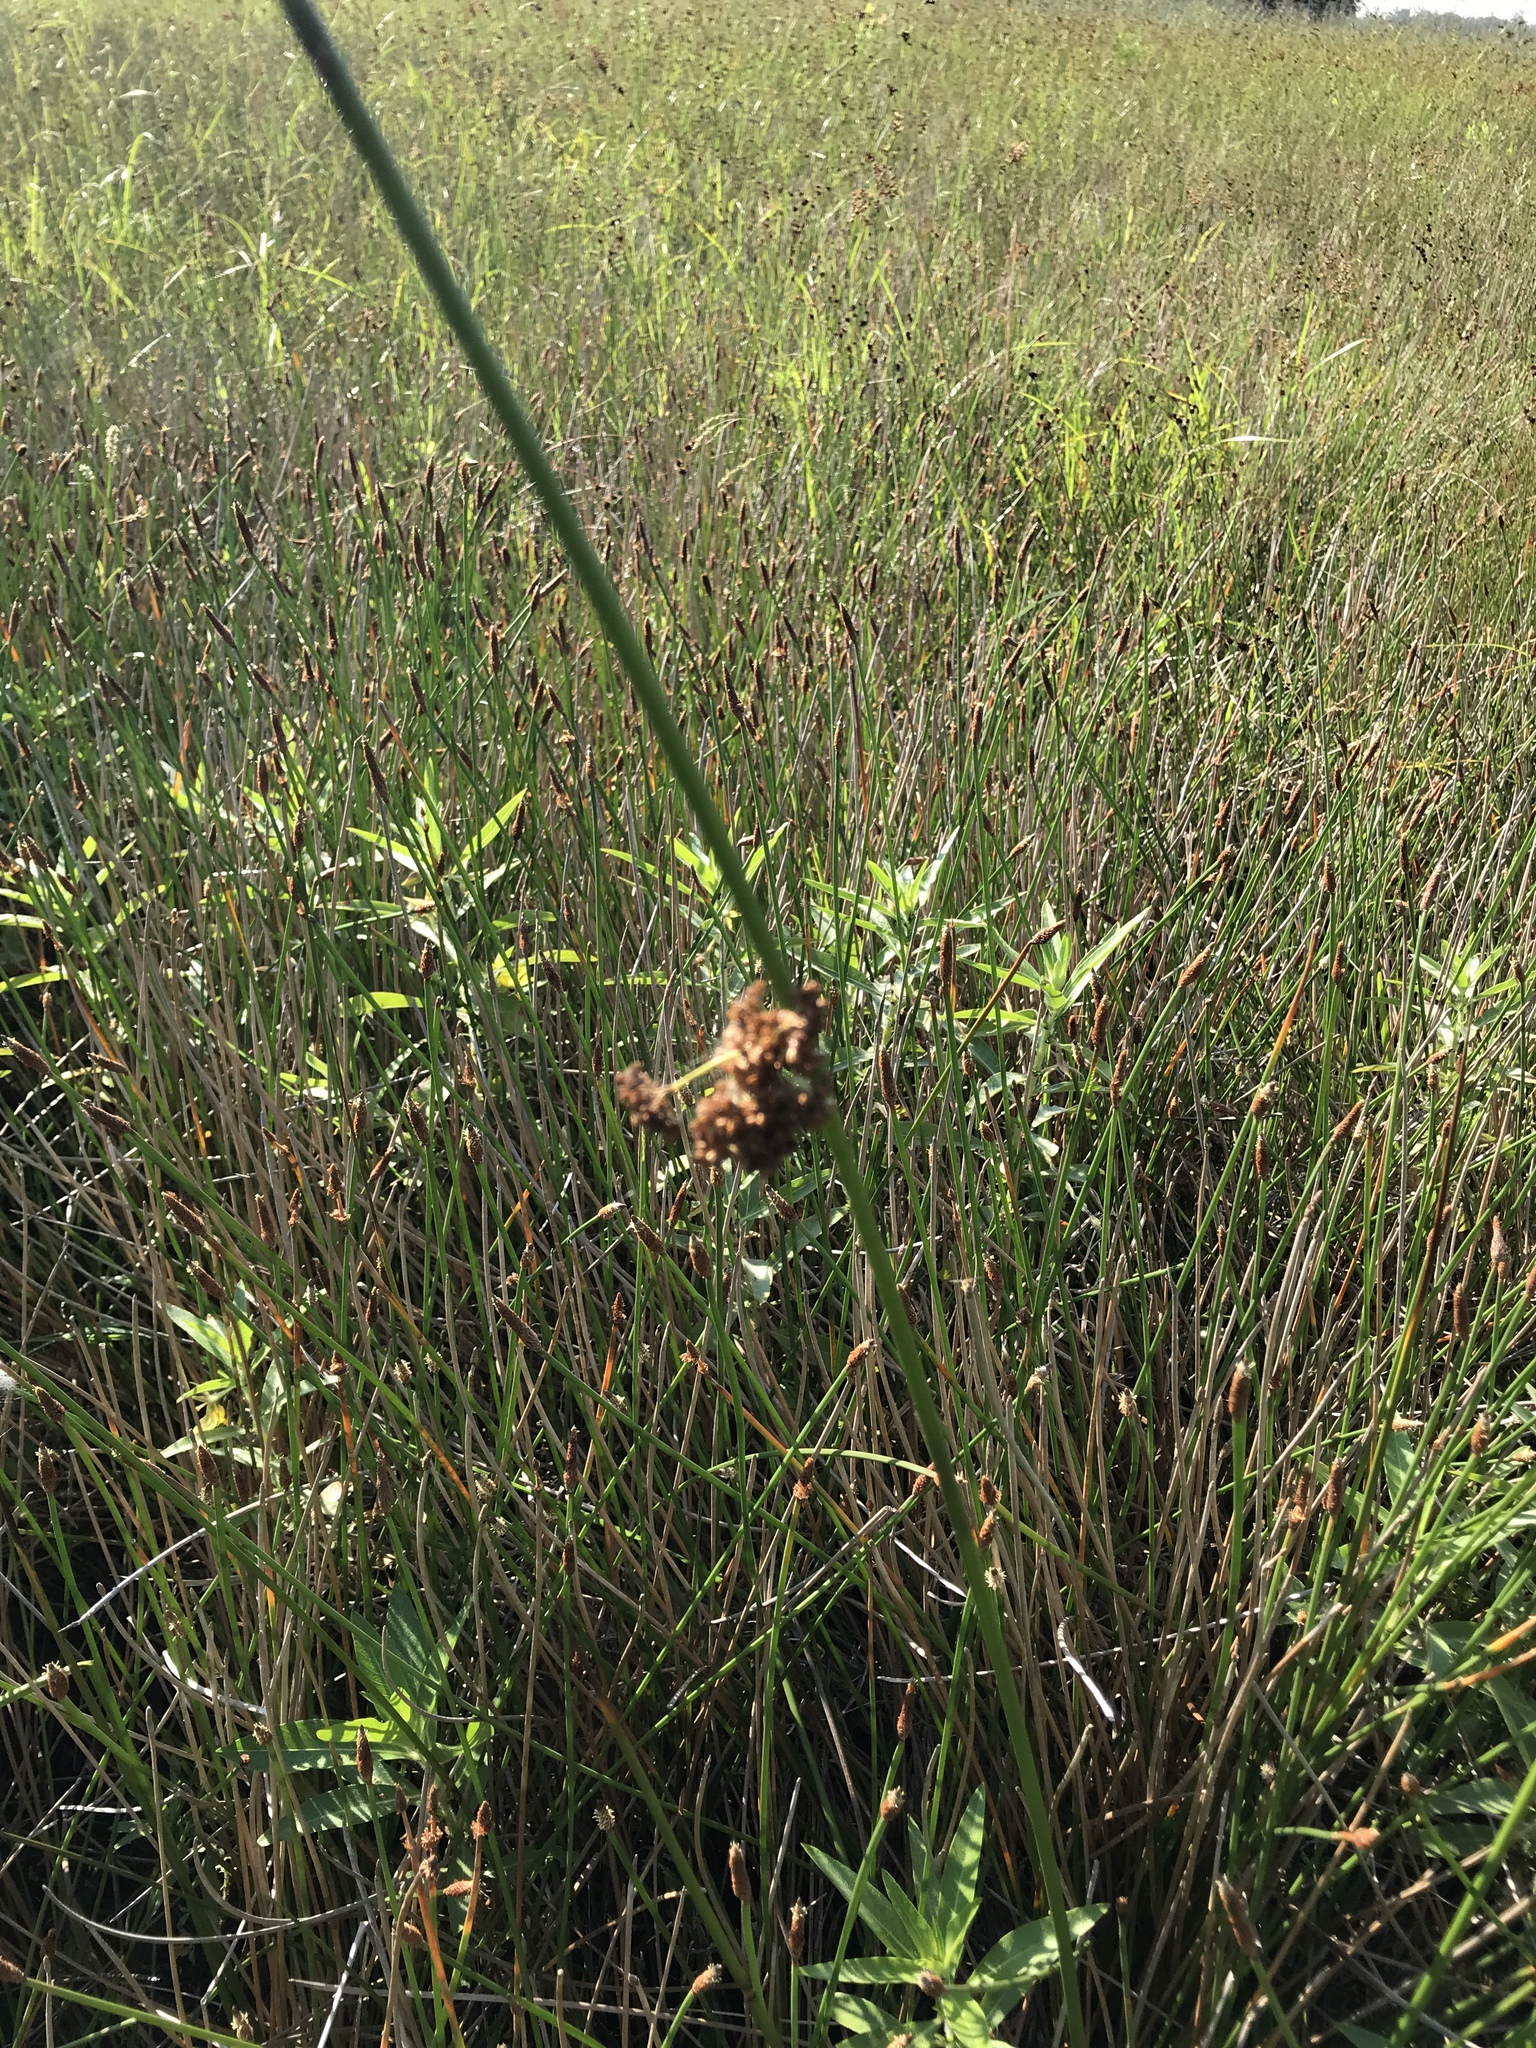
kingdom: Plantae
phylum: Tracheophyta
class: Liliopsida
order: Poales
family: Juncaceae
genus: Juncus
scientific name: Juncus effusus
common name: Soft rush
